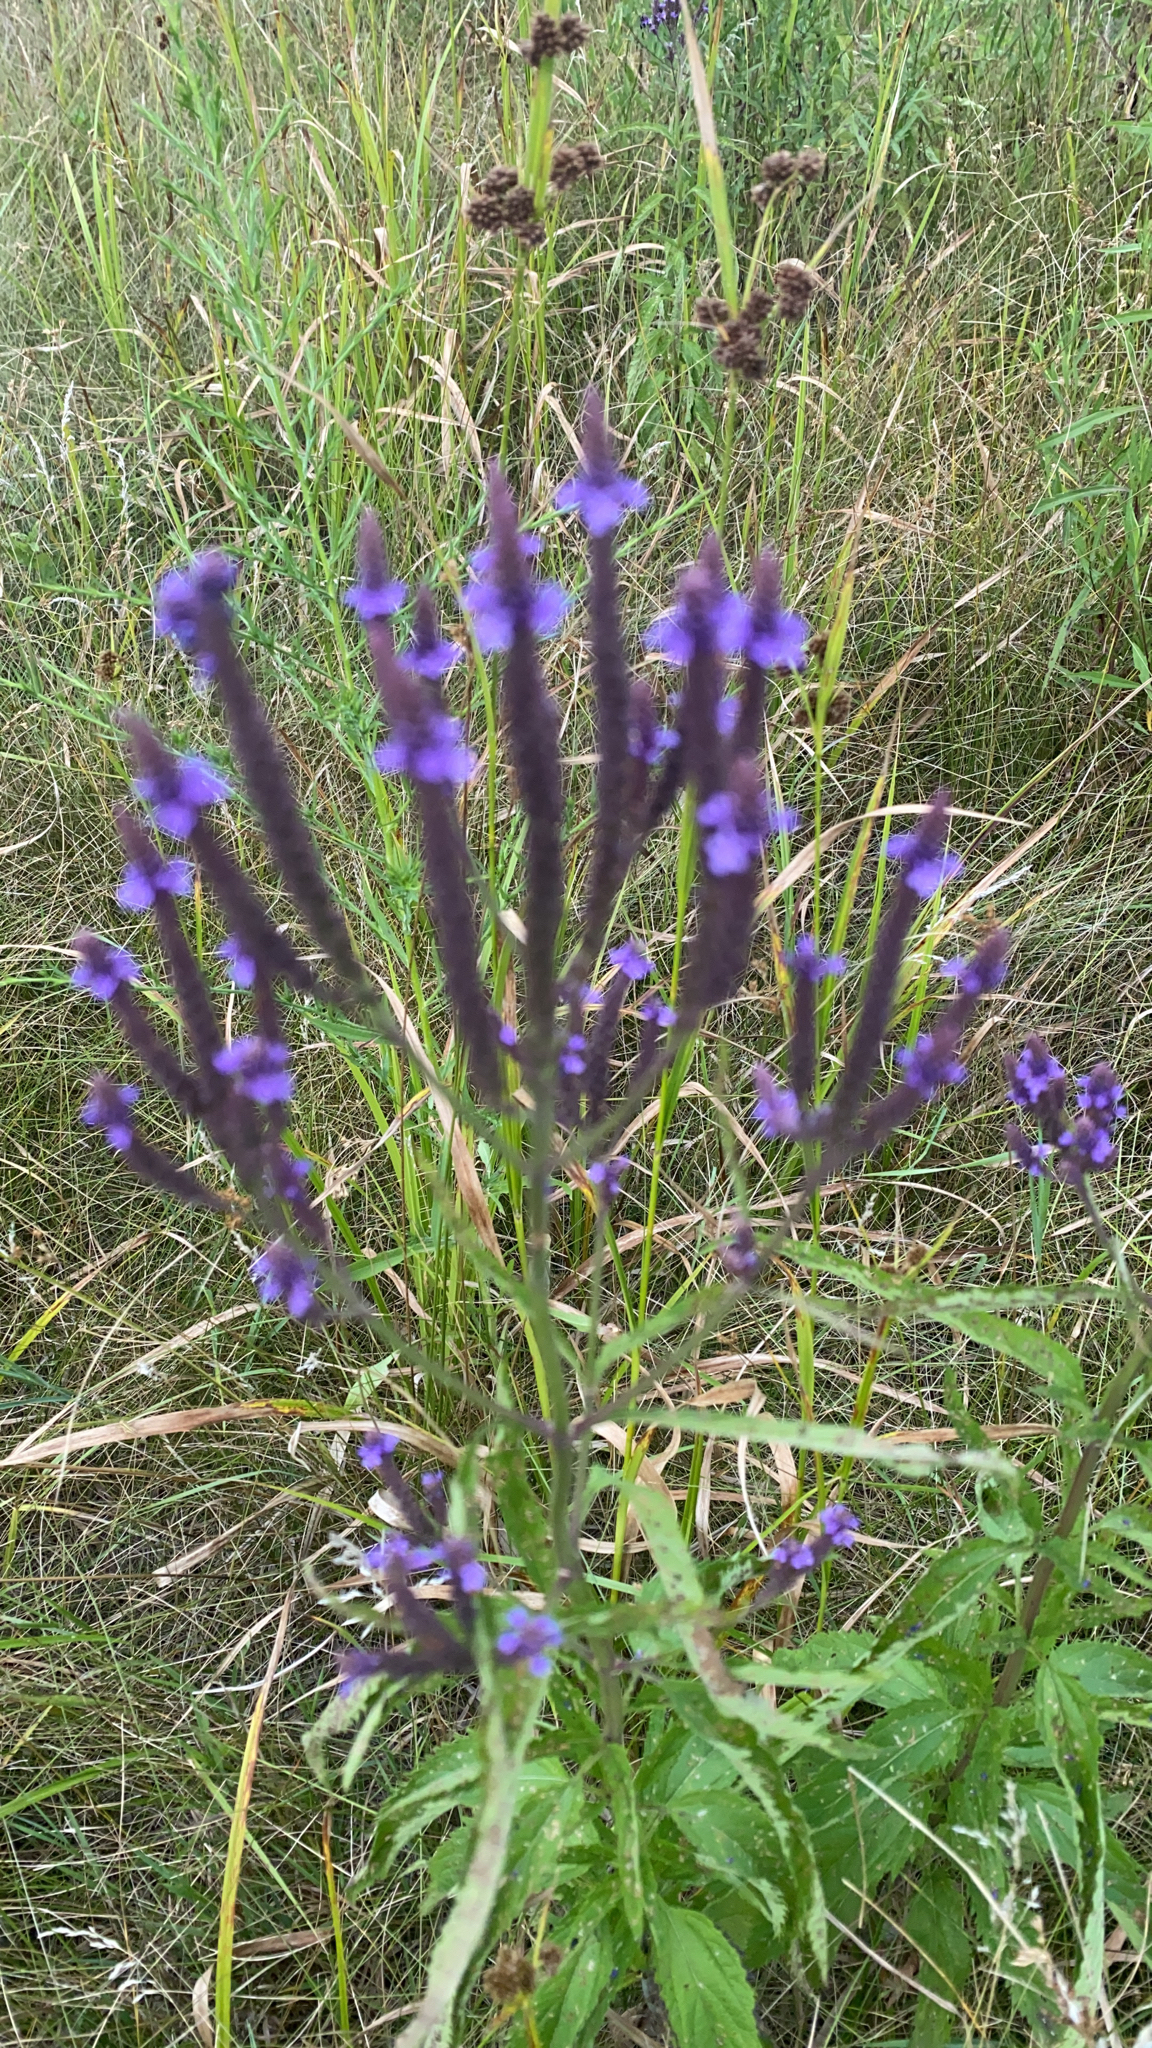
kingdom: Plantae
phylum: Tracheophyta
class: Magnoliopsida
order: Lamiales
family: Verbenaceae
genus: Verbena
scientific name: Verbena hastata
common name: American blue vervain
